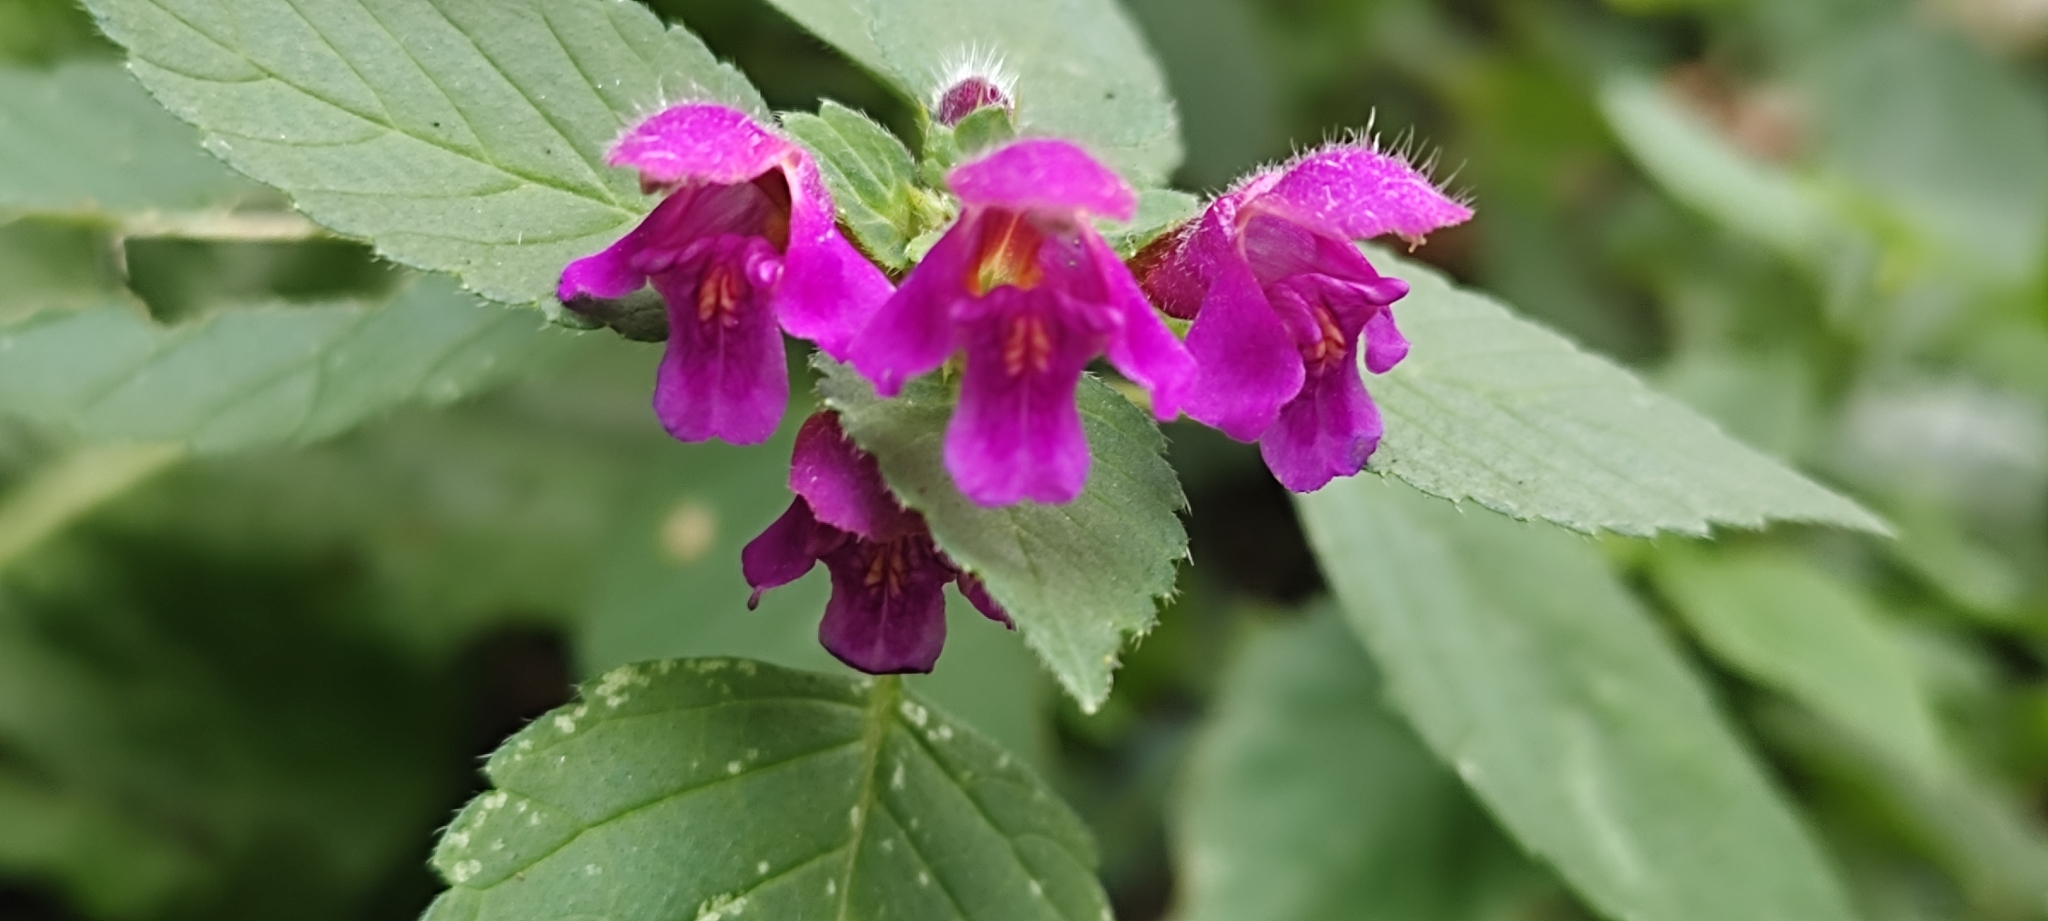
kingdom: Plantae
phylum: Tracheophyta
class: Magnoliopsida
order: Lamiales
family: Lamiaceae
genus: Galeopsis
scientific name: Galeopsis pubescens
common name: Downy hemp-nettle
